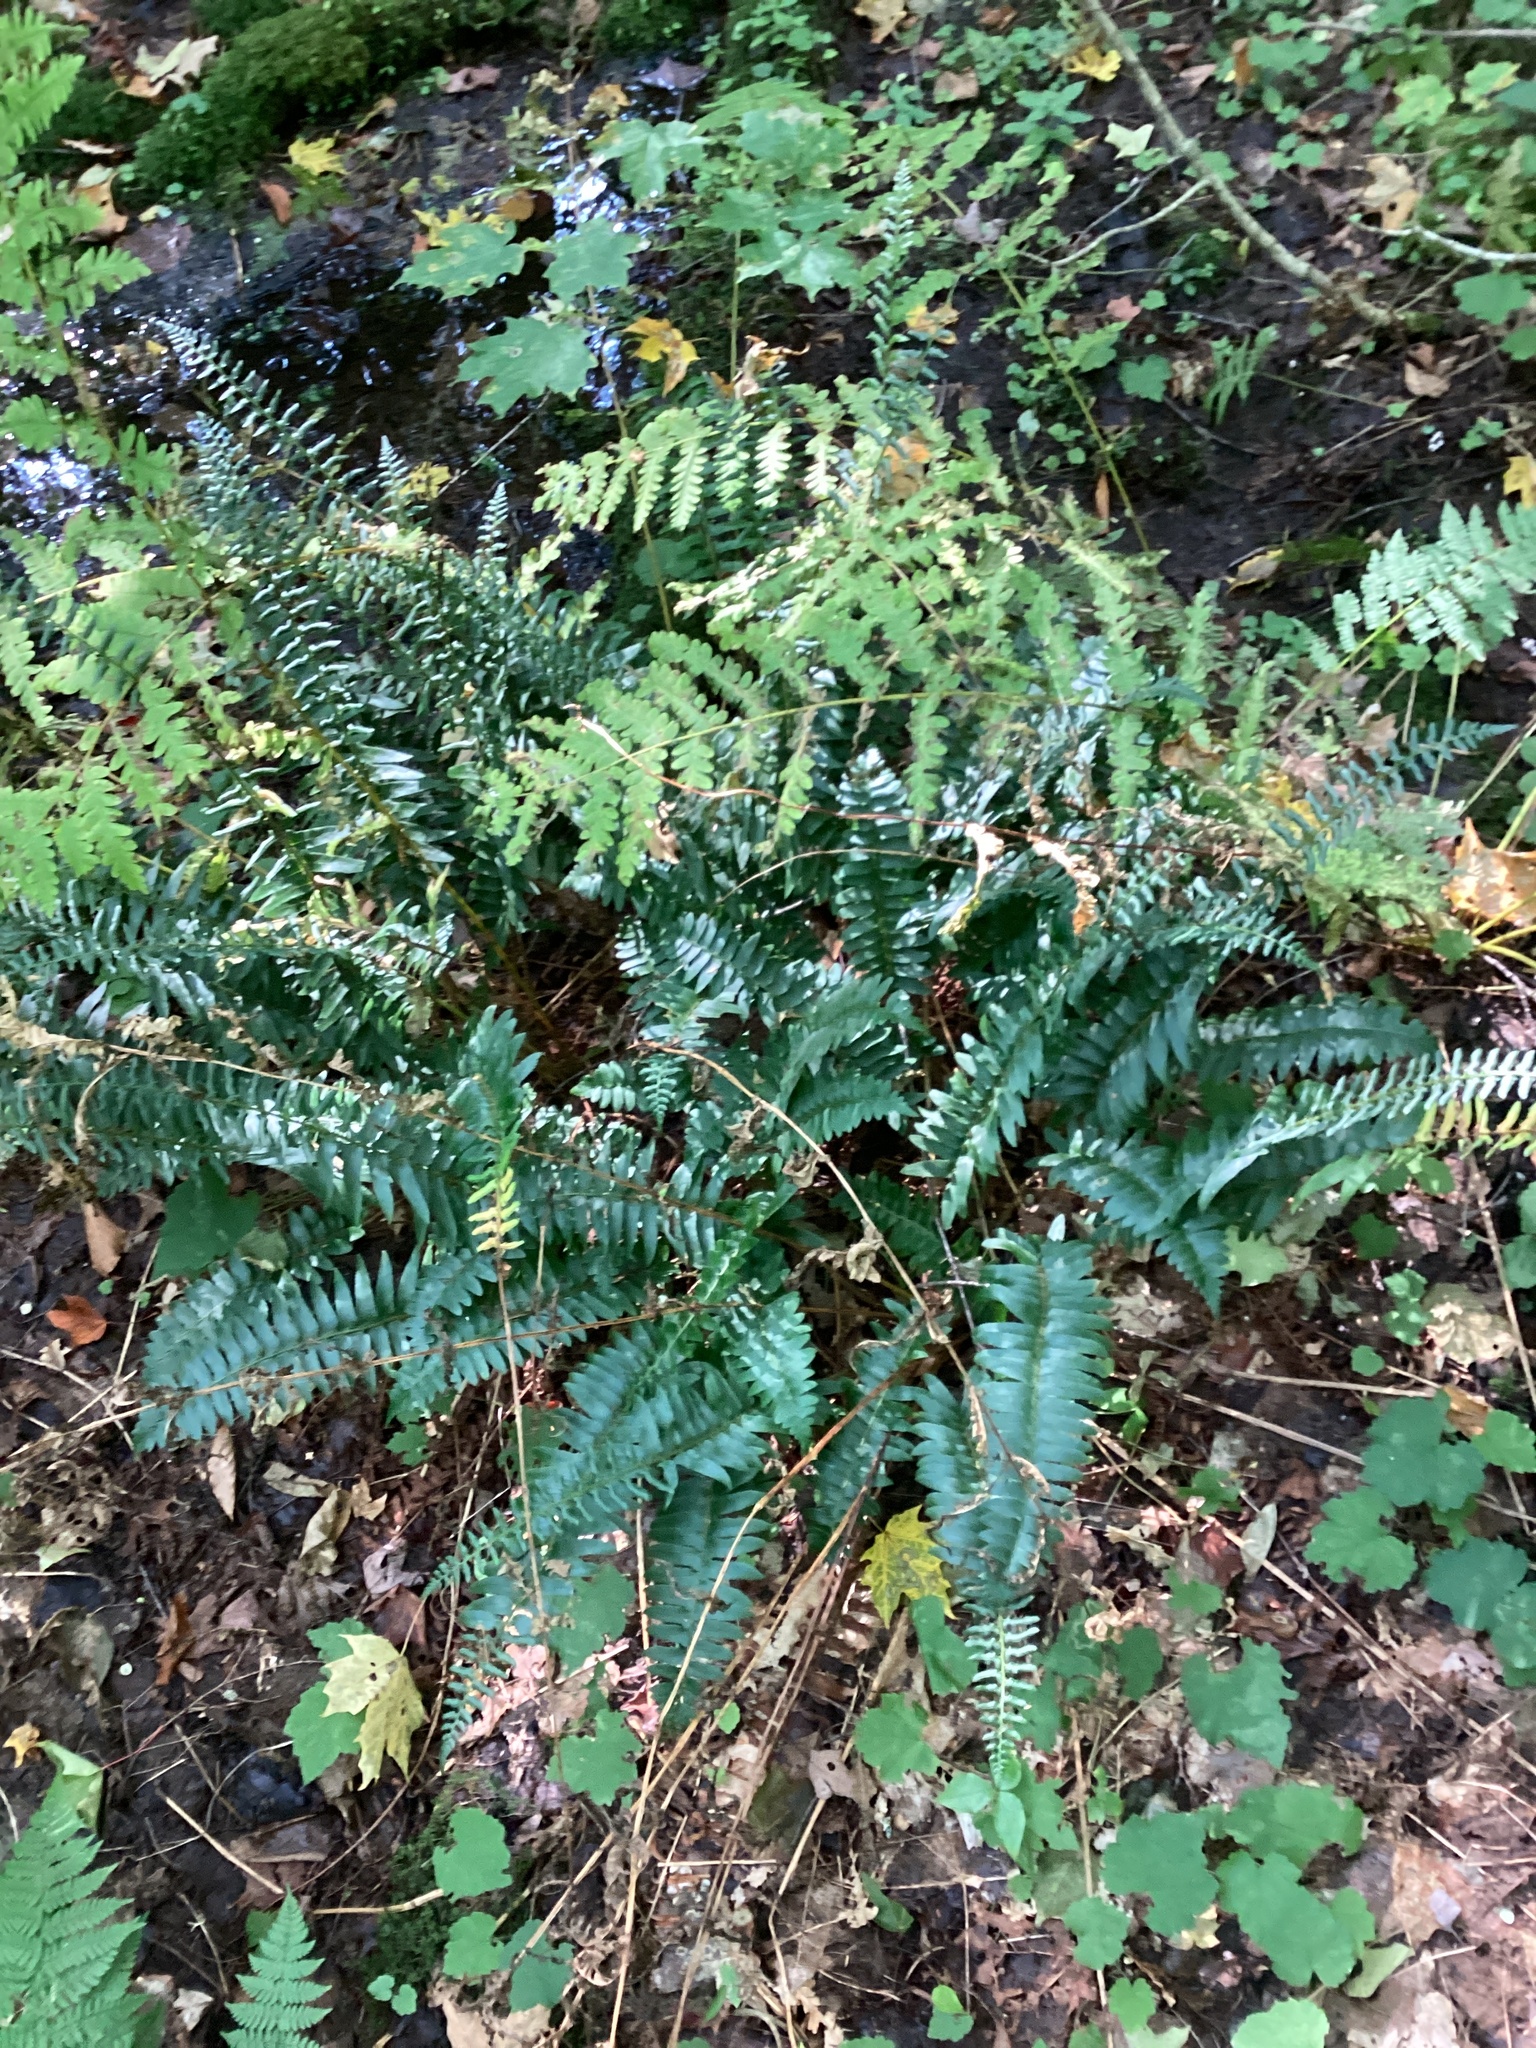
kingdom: Plantae
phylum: Tracheophyta
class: Polypodiopsida
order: Polypodiales
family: Dryopteridaceae
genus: Polystichum
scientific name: Polystichum acrostichoides
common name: Christmas fern
